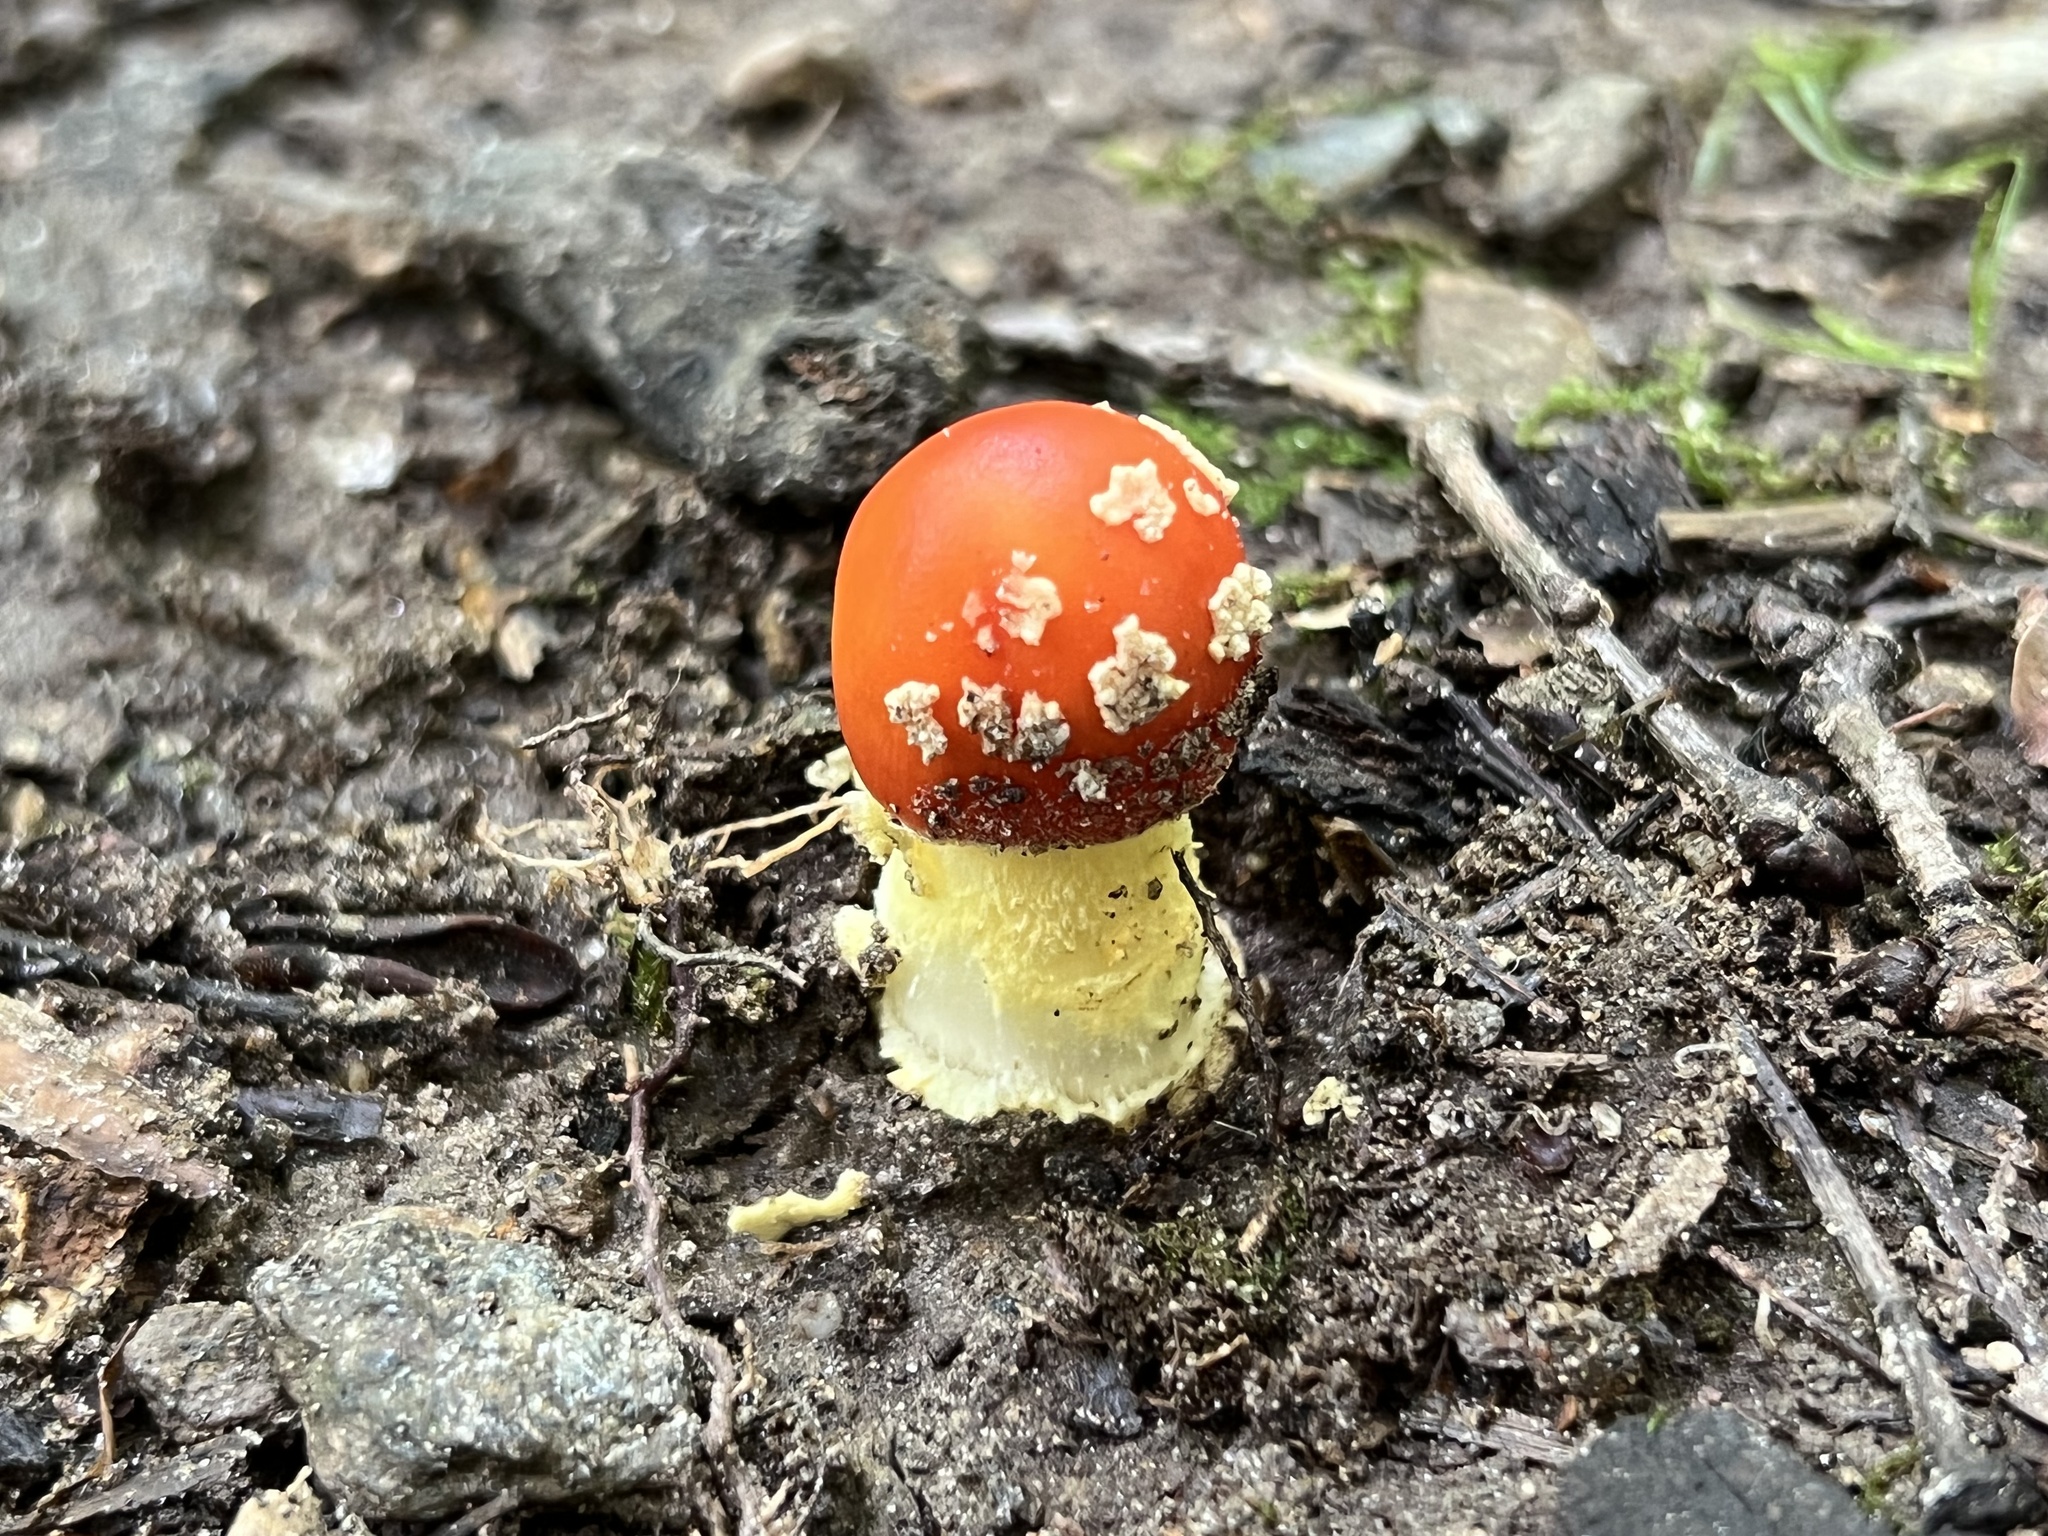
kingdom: Fungi
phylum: Basidiomycota
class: Agaricomycetes
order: Agaricales
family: Amanitaceae
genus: Amanita
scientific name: Amanita parcivolvata
